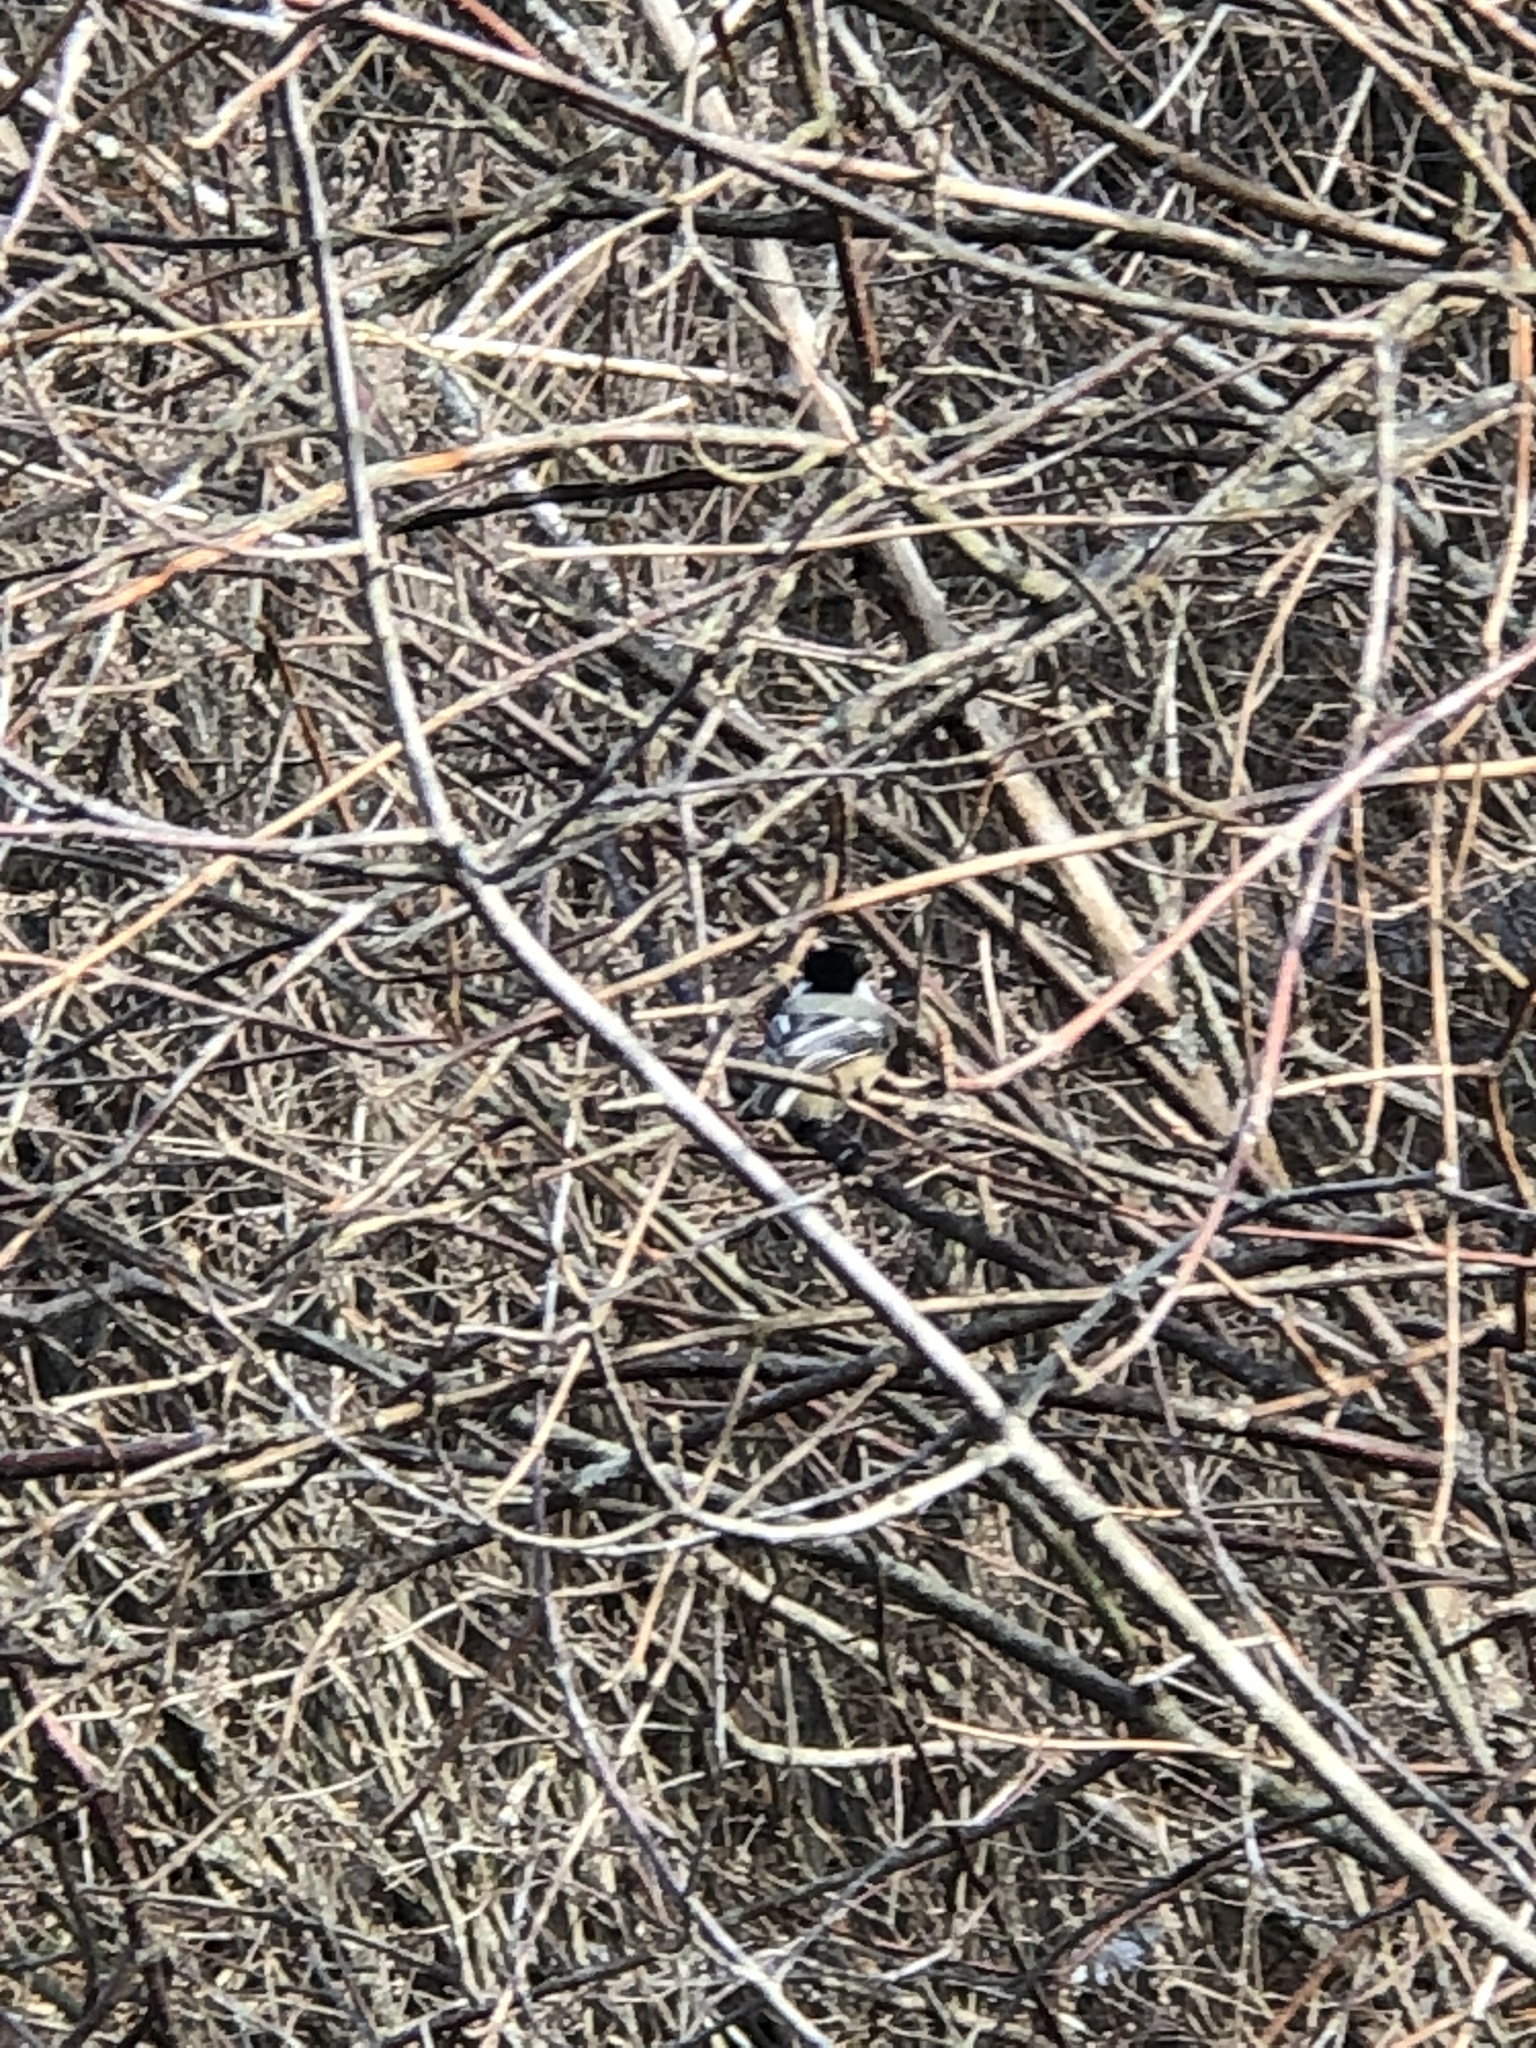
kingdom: Animalia
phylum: Chordata
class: Aves
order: Passeriformes
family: Paridae
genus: Poecile
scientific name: Poecile atricapillus
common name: Black-capped chickadee
